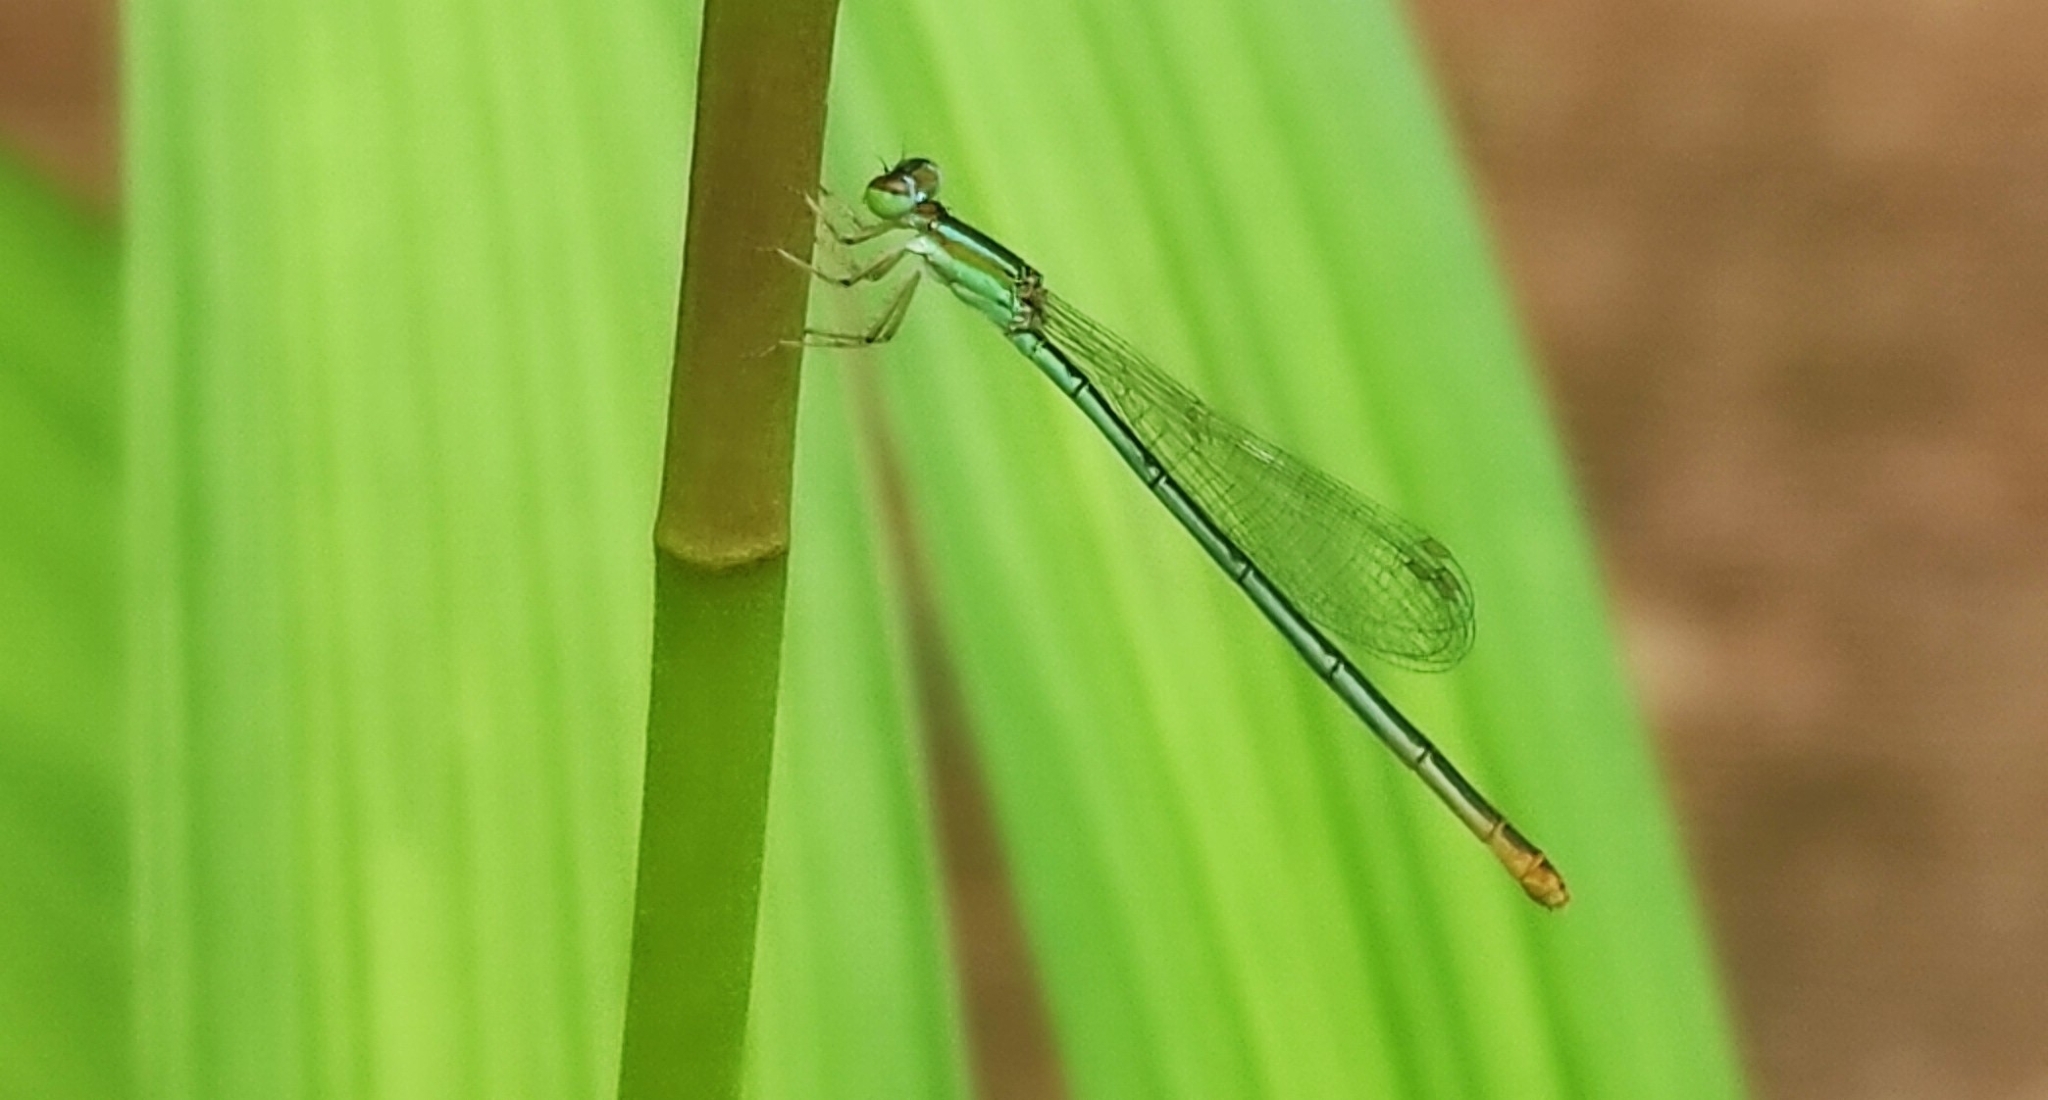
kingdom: Animalia
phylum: Arthropoda
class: Insecta
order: Odonata
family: Coenagrionidae
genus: Agriocnemis
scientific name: Agriocnemis pygmaea
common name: Pygmy wisp
